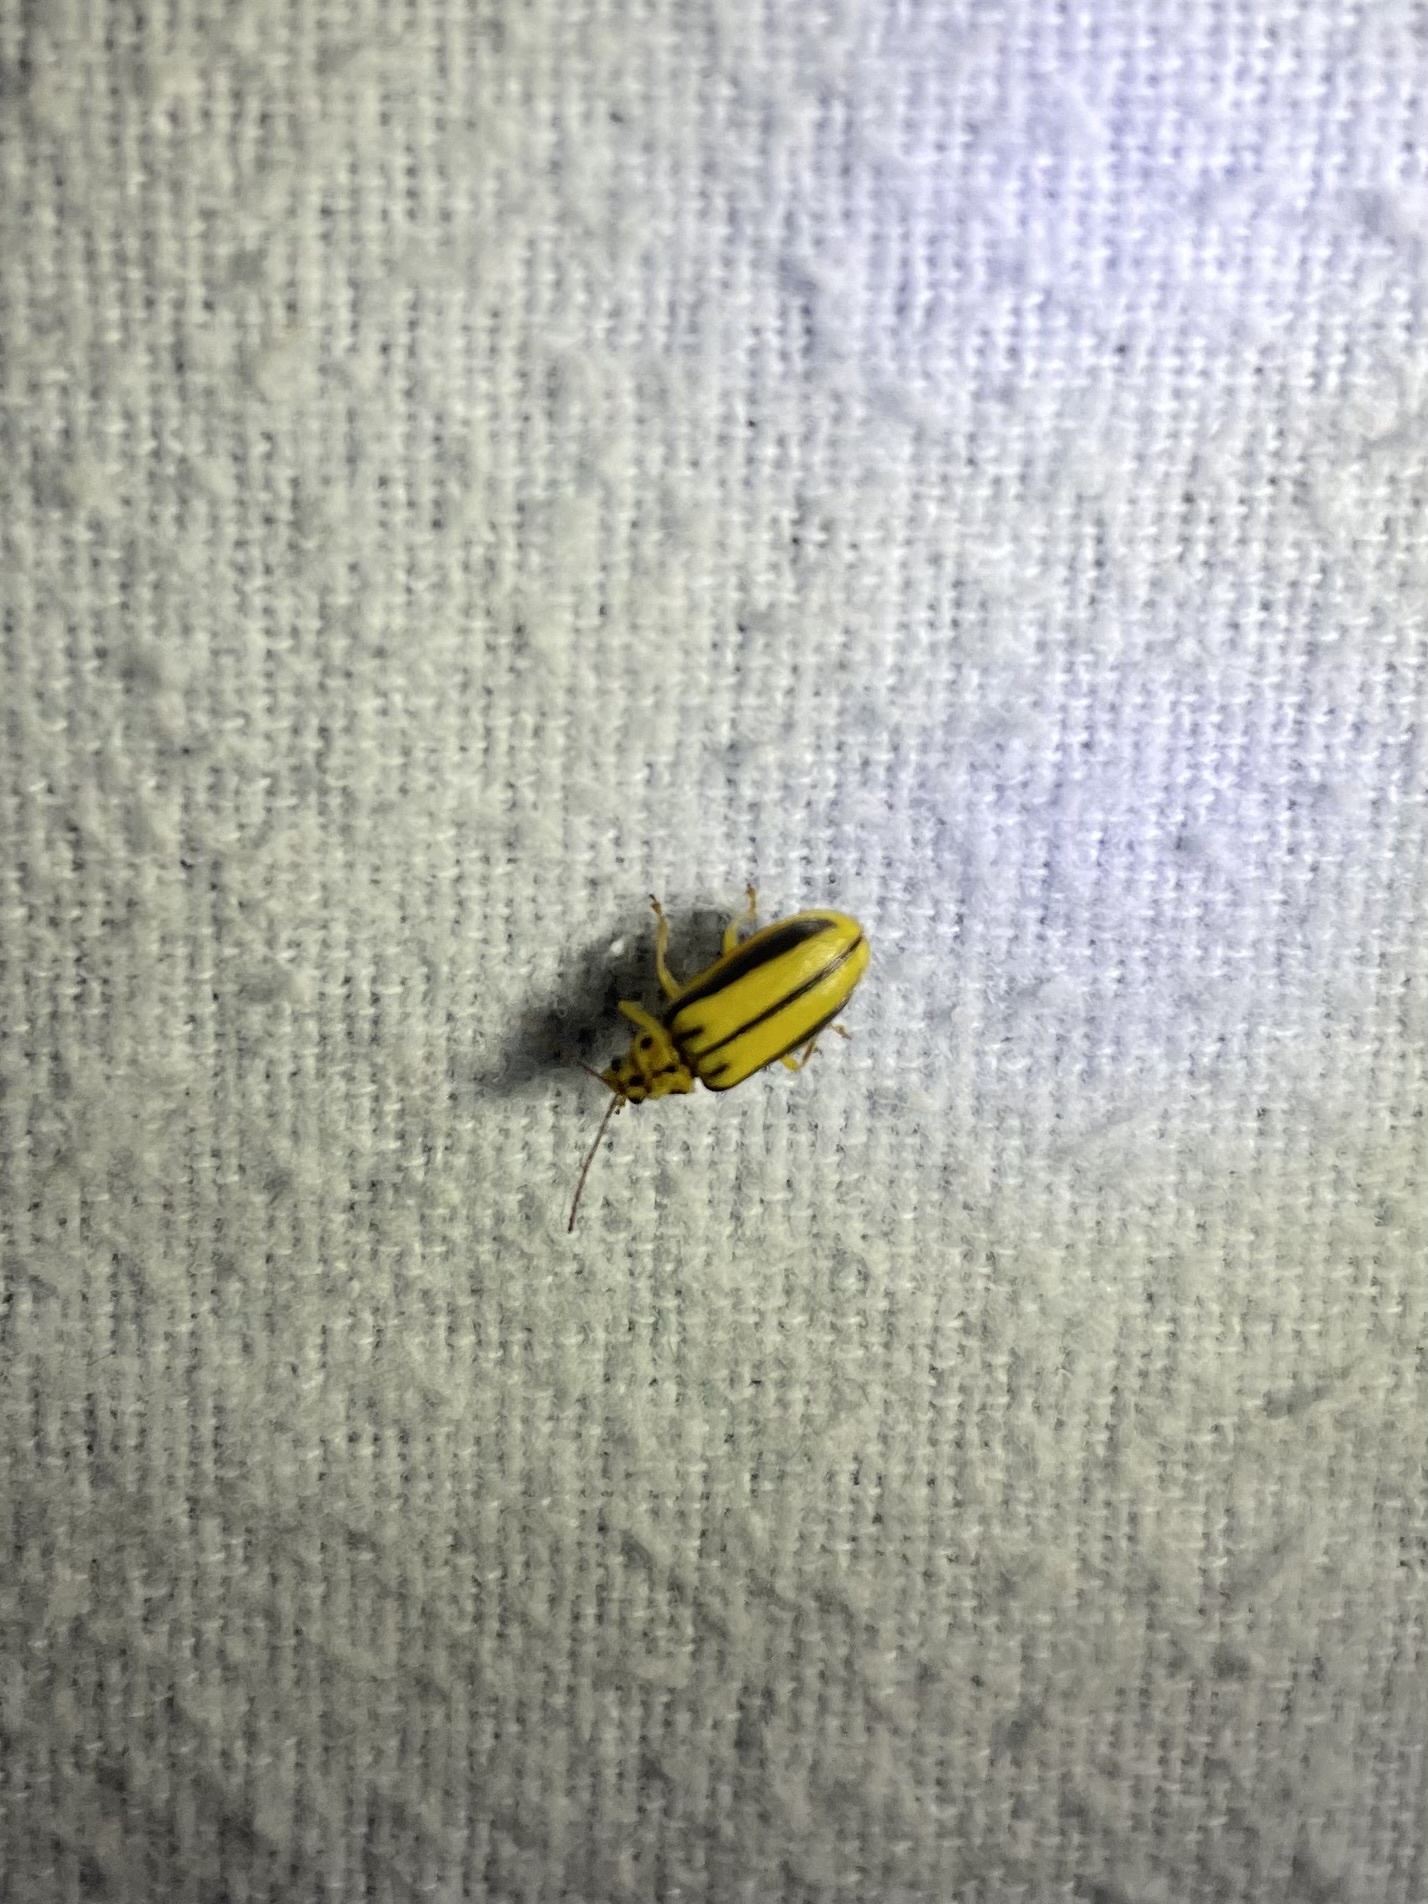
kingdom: Animalia
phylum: Arthropoda
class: Insecta
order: Coleoptera
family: Chrysomelidae
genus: Xanthogaleruca
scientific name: Xanthogaleruca luteola
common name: Elm leaf beetle
